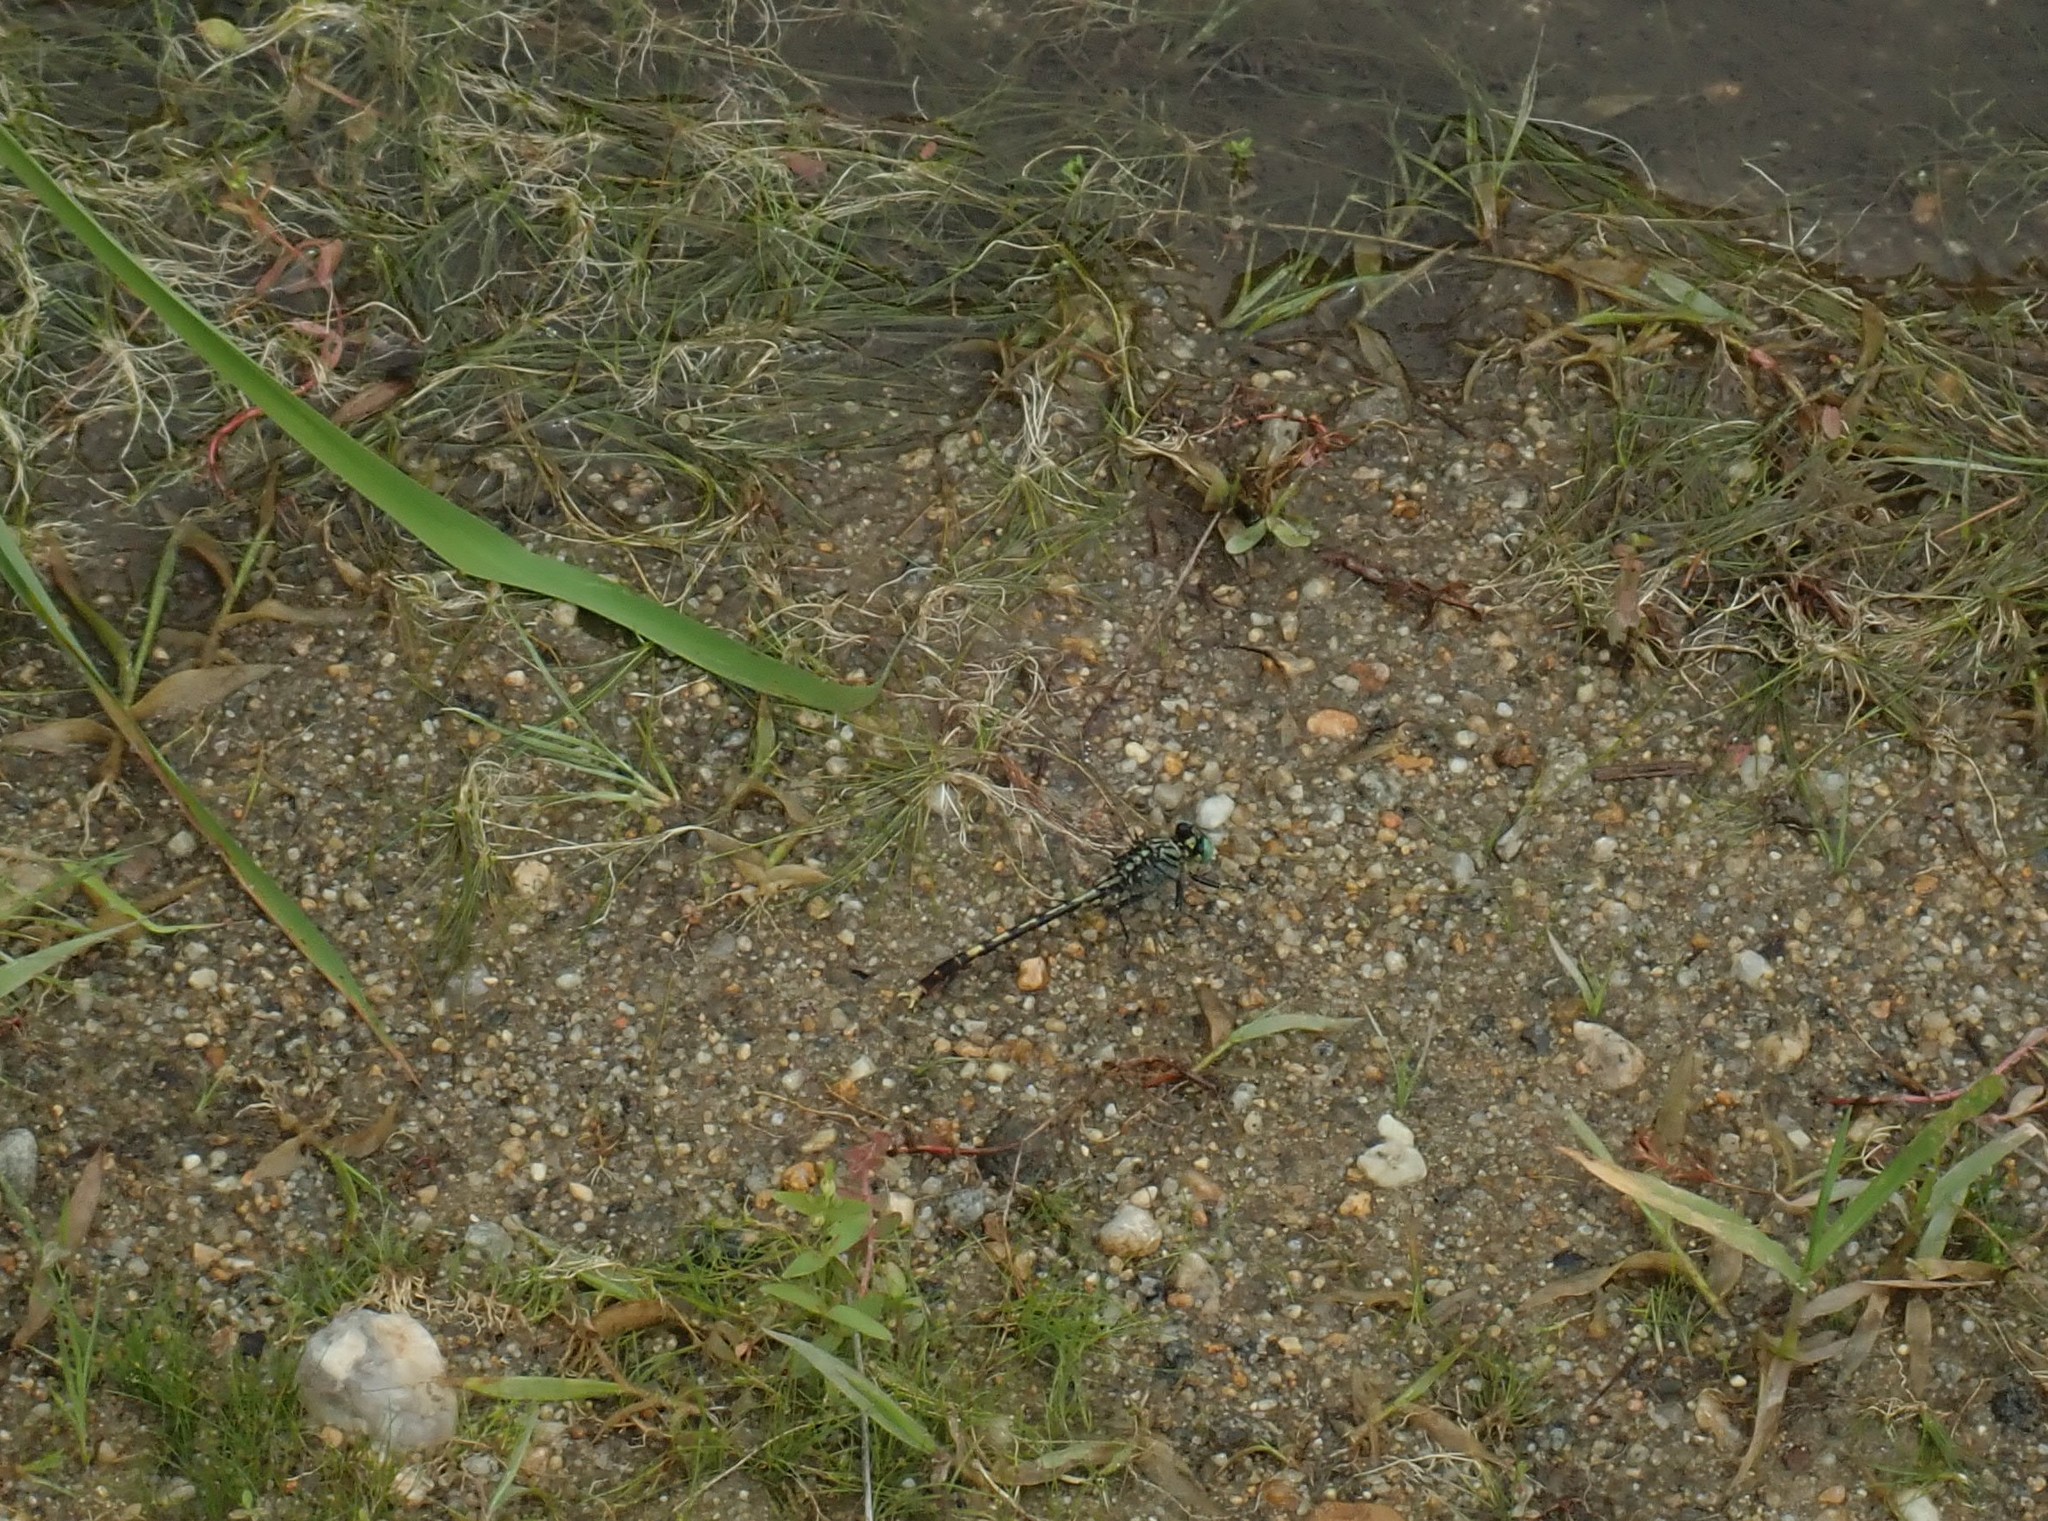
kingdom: Animalia
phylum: Arthropoda
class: Insecta
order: Odonata
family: Gomphidae
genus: Arigomphus
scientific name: Arigomphus villosipes
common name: Unicorn clubtail
